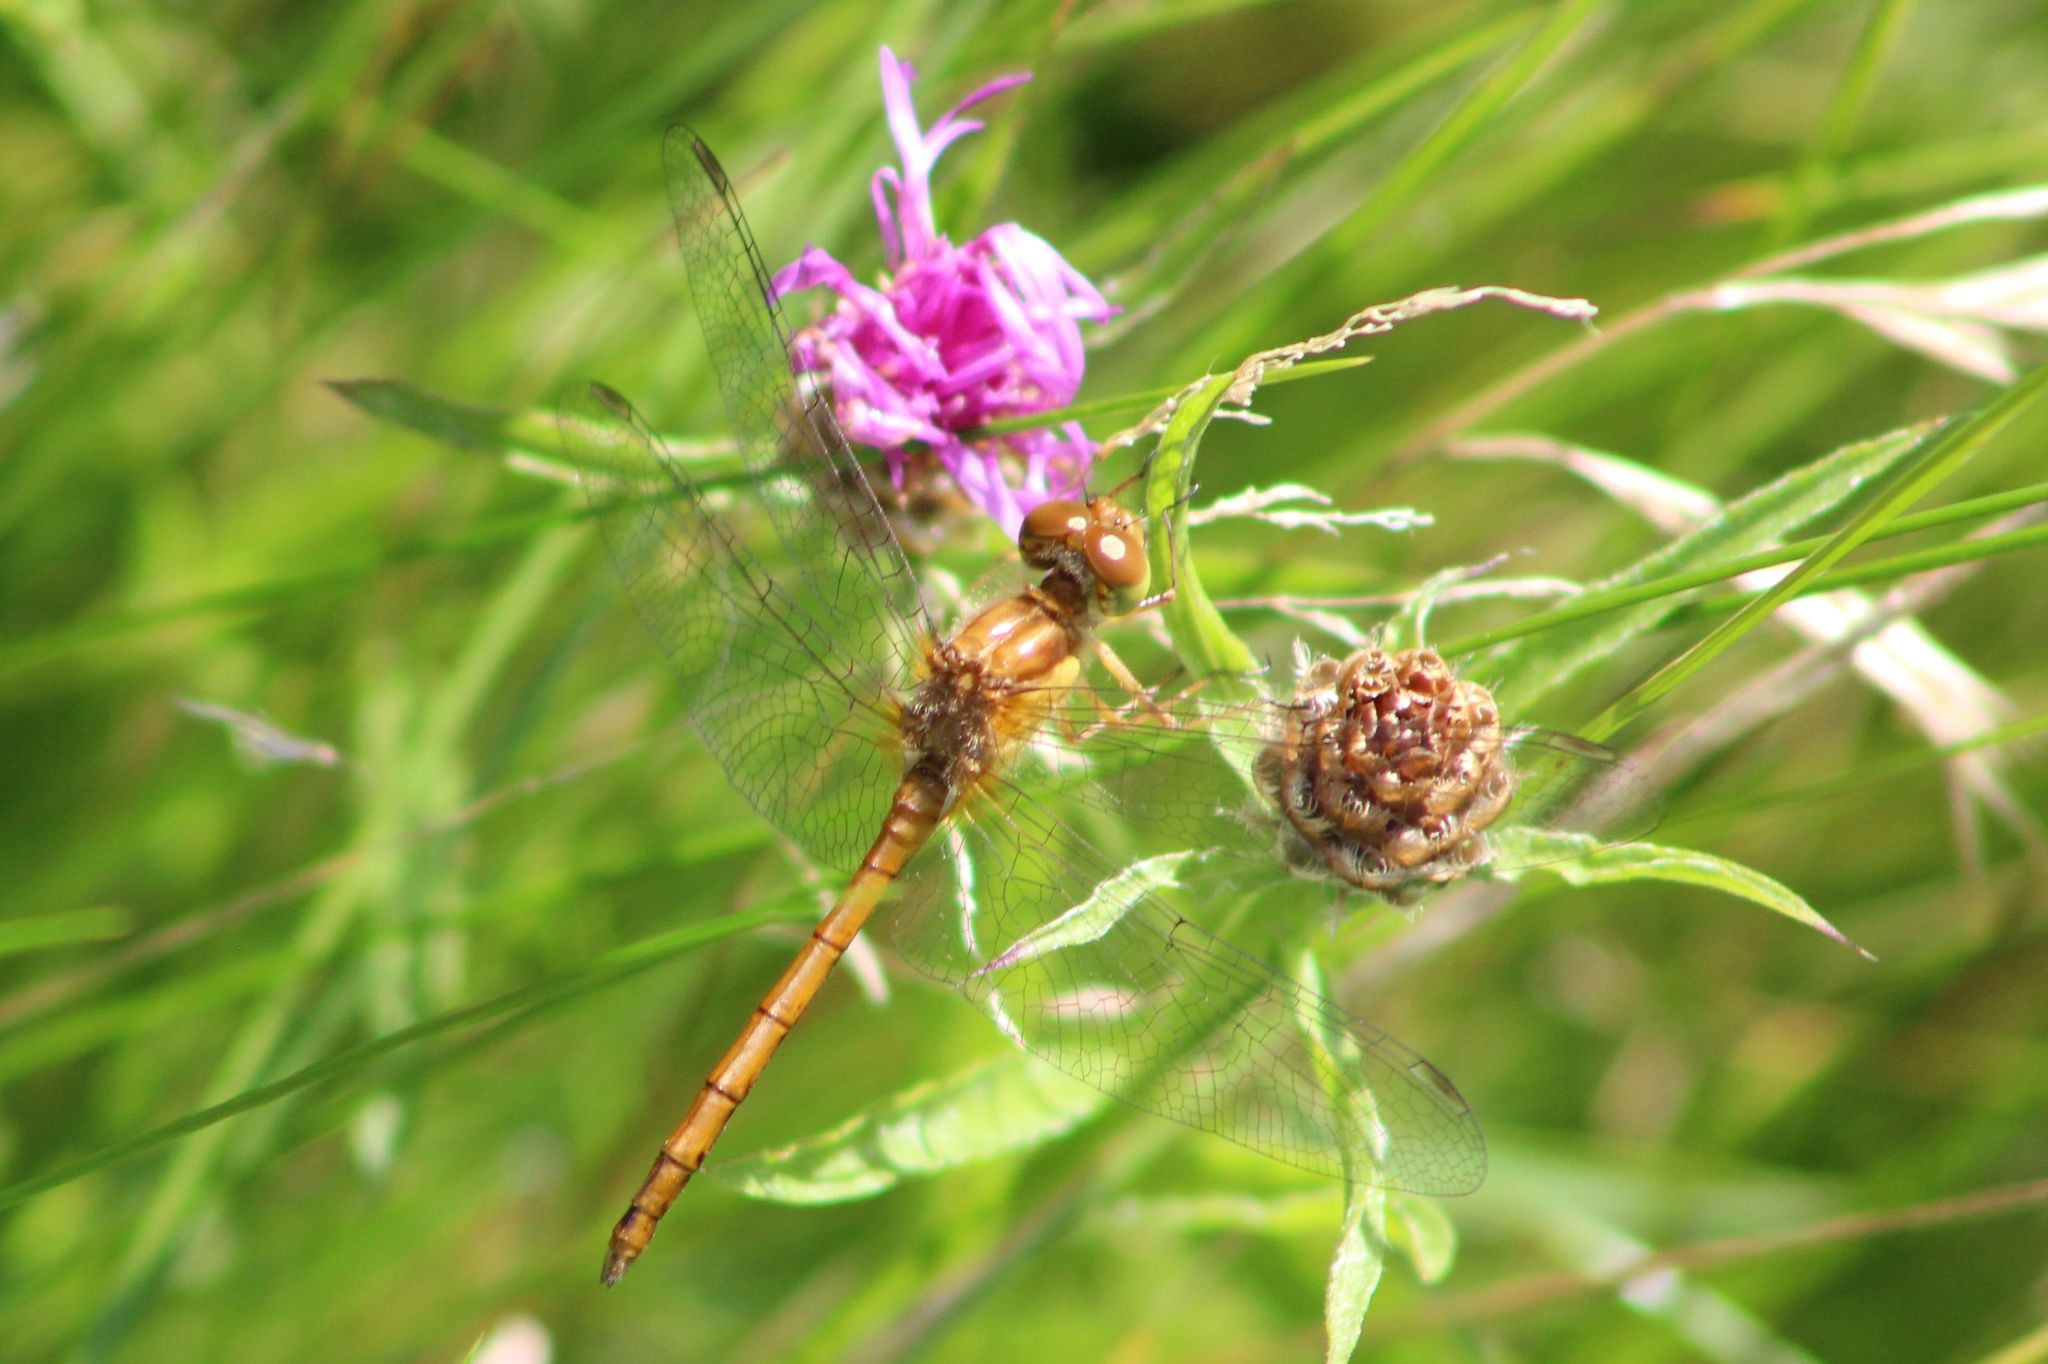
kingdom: Animalia
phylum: Arthropoda
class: Insecta
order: Odonata
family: Libellulidae
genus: Sympetrum
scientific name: Sympetrum vicinum
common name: Autumn meadowhawk
